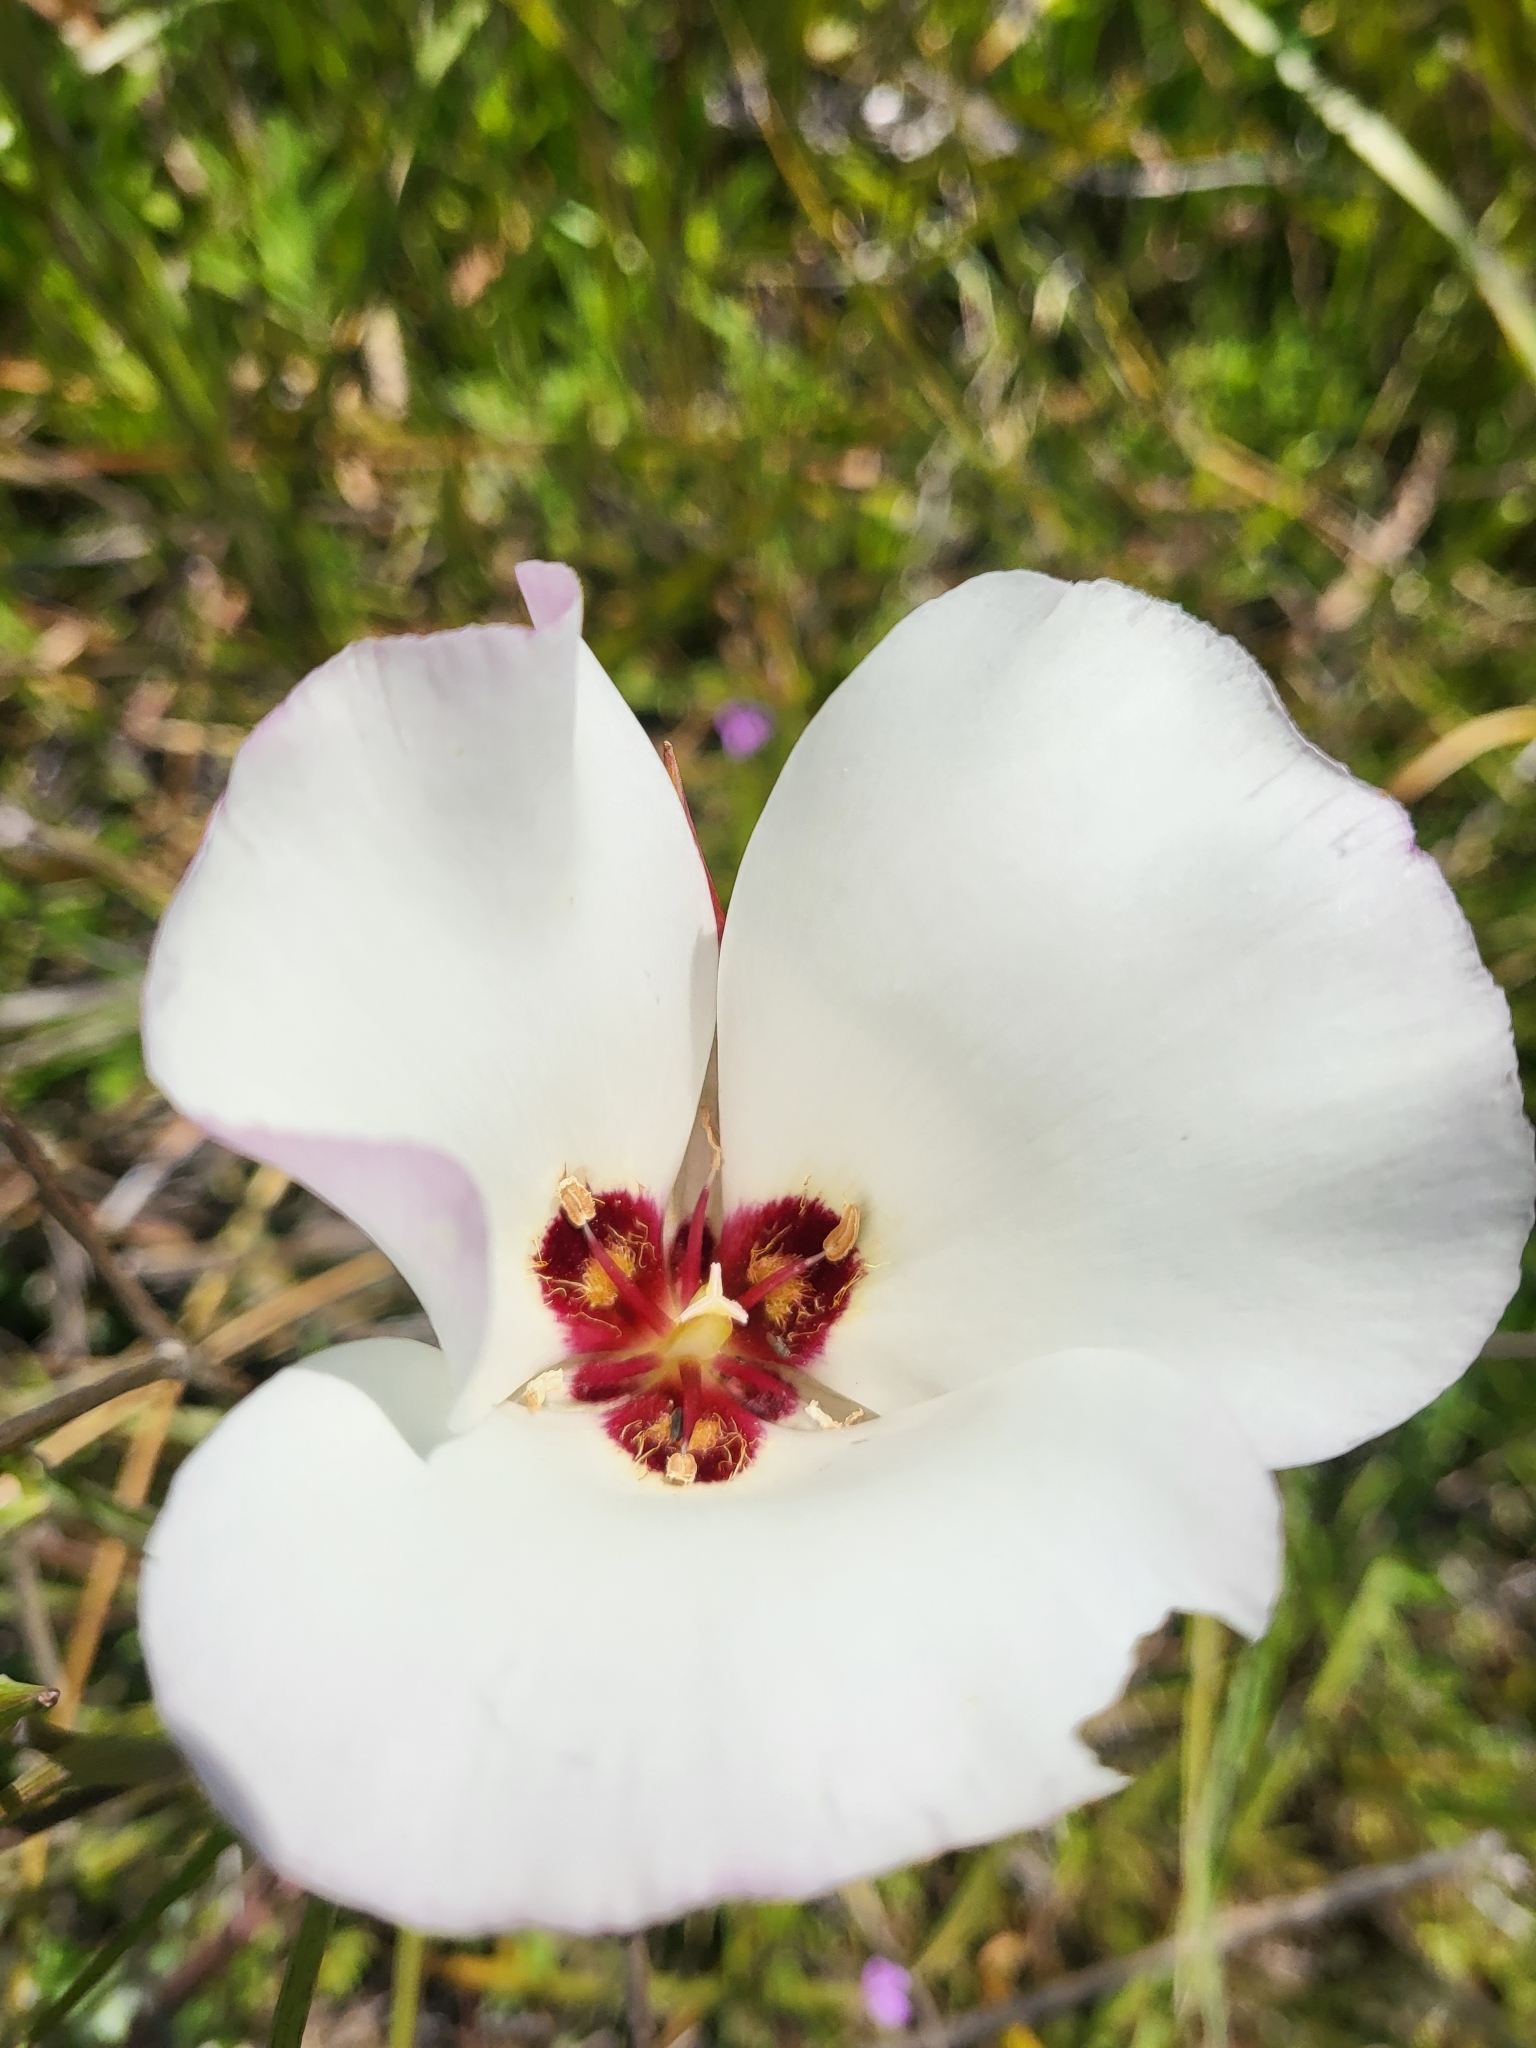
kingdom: Plantae
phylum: Tracheophyta
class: Liliopsida
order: Liliales
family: Liliaceae
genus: Calochortus
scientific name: Calochortus catalinae
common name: Catalina mariposa-lily
